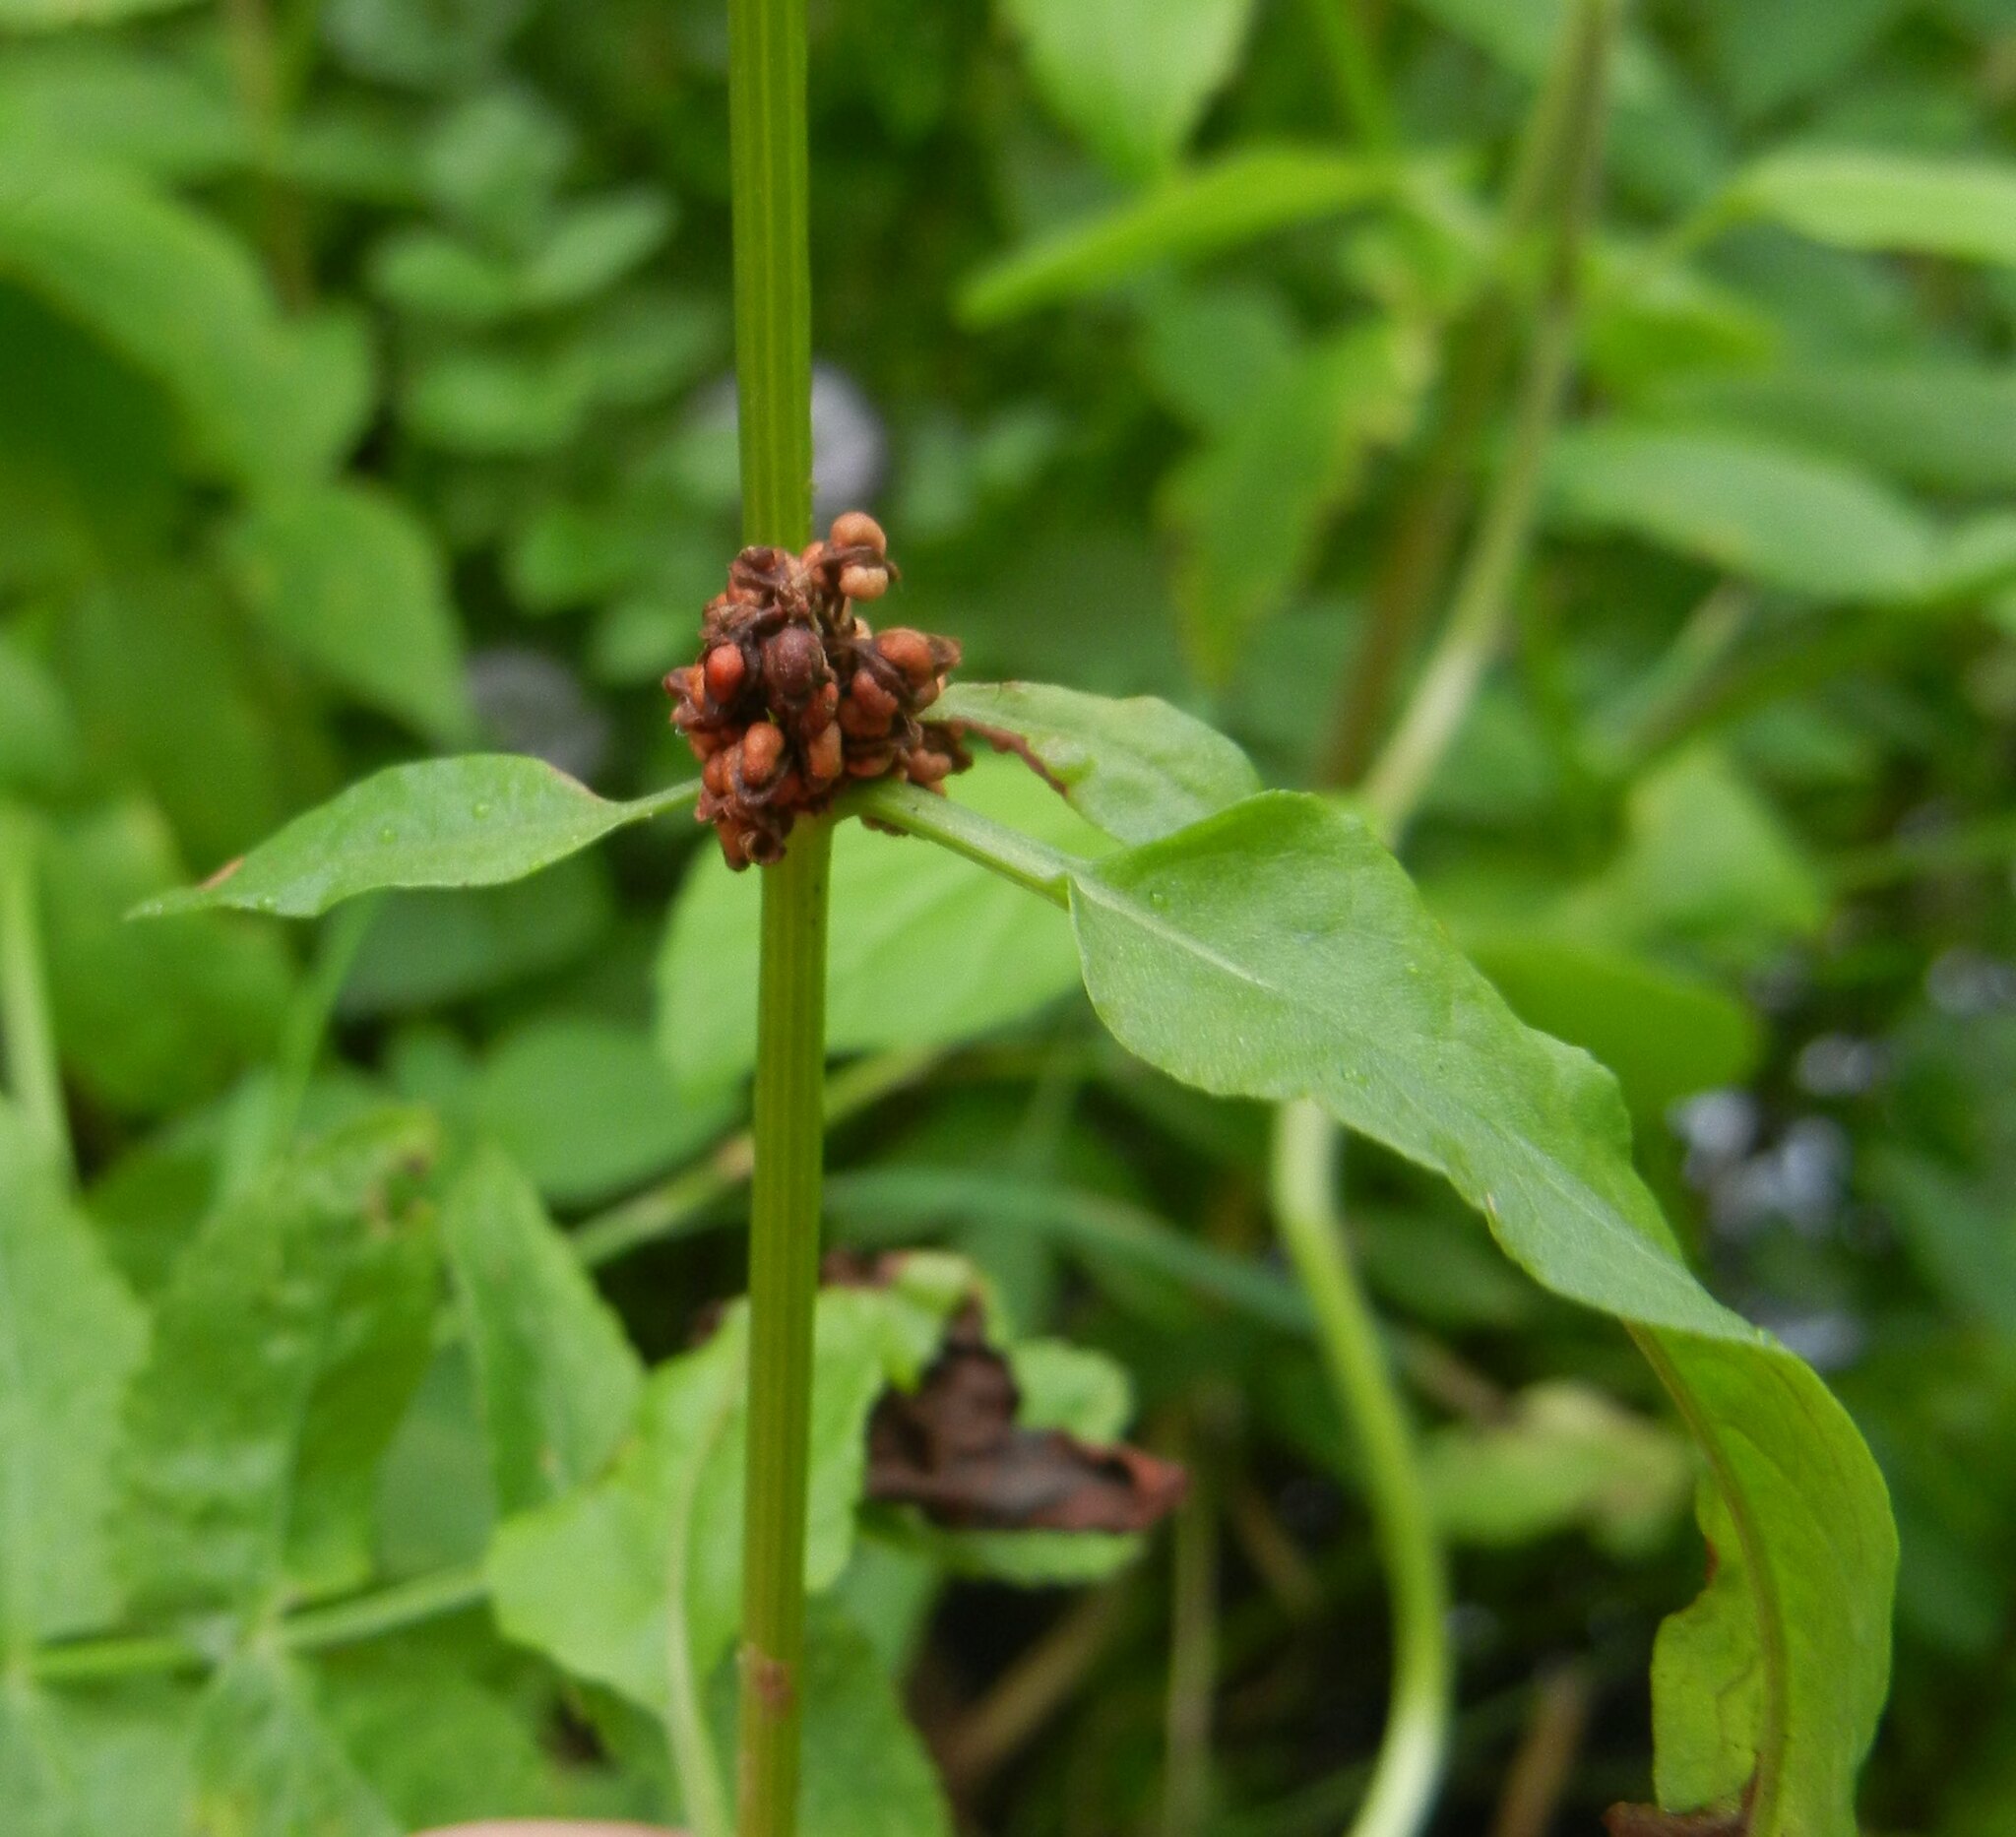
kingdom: Plantae
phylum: Tracheophyta
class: Magnoliopsida
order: Caryophyllales
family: Polygonaceae
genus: Rumex
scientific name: Rumex conglomeratus
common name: Clustered dock
